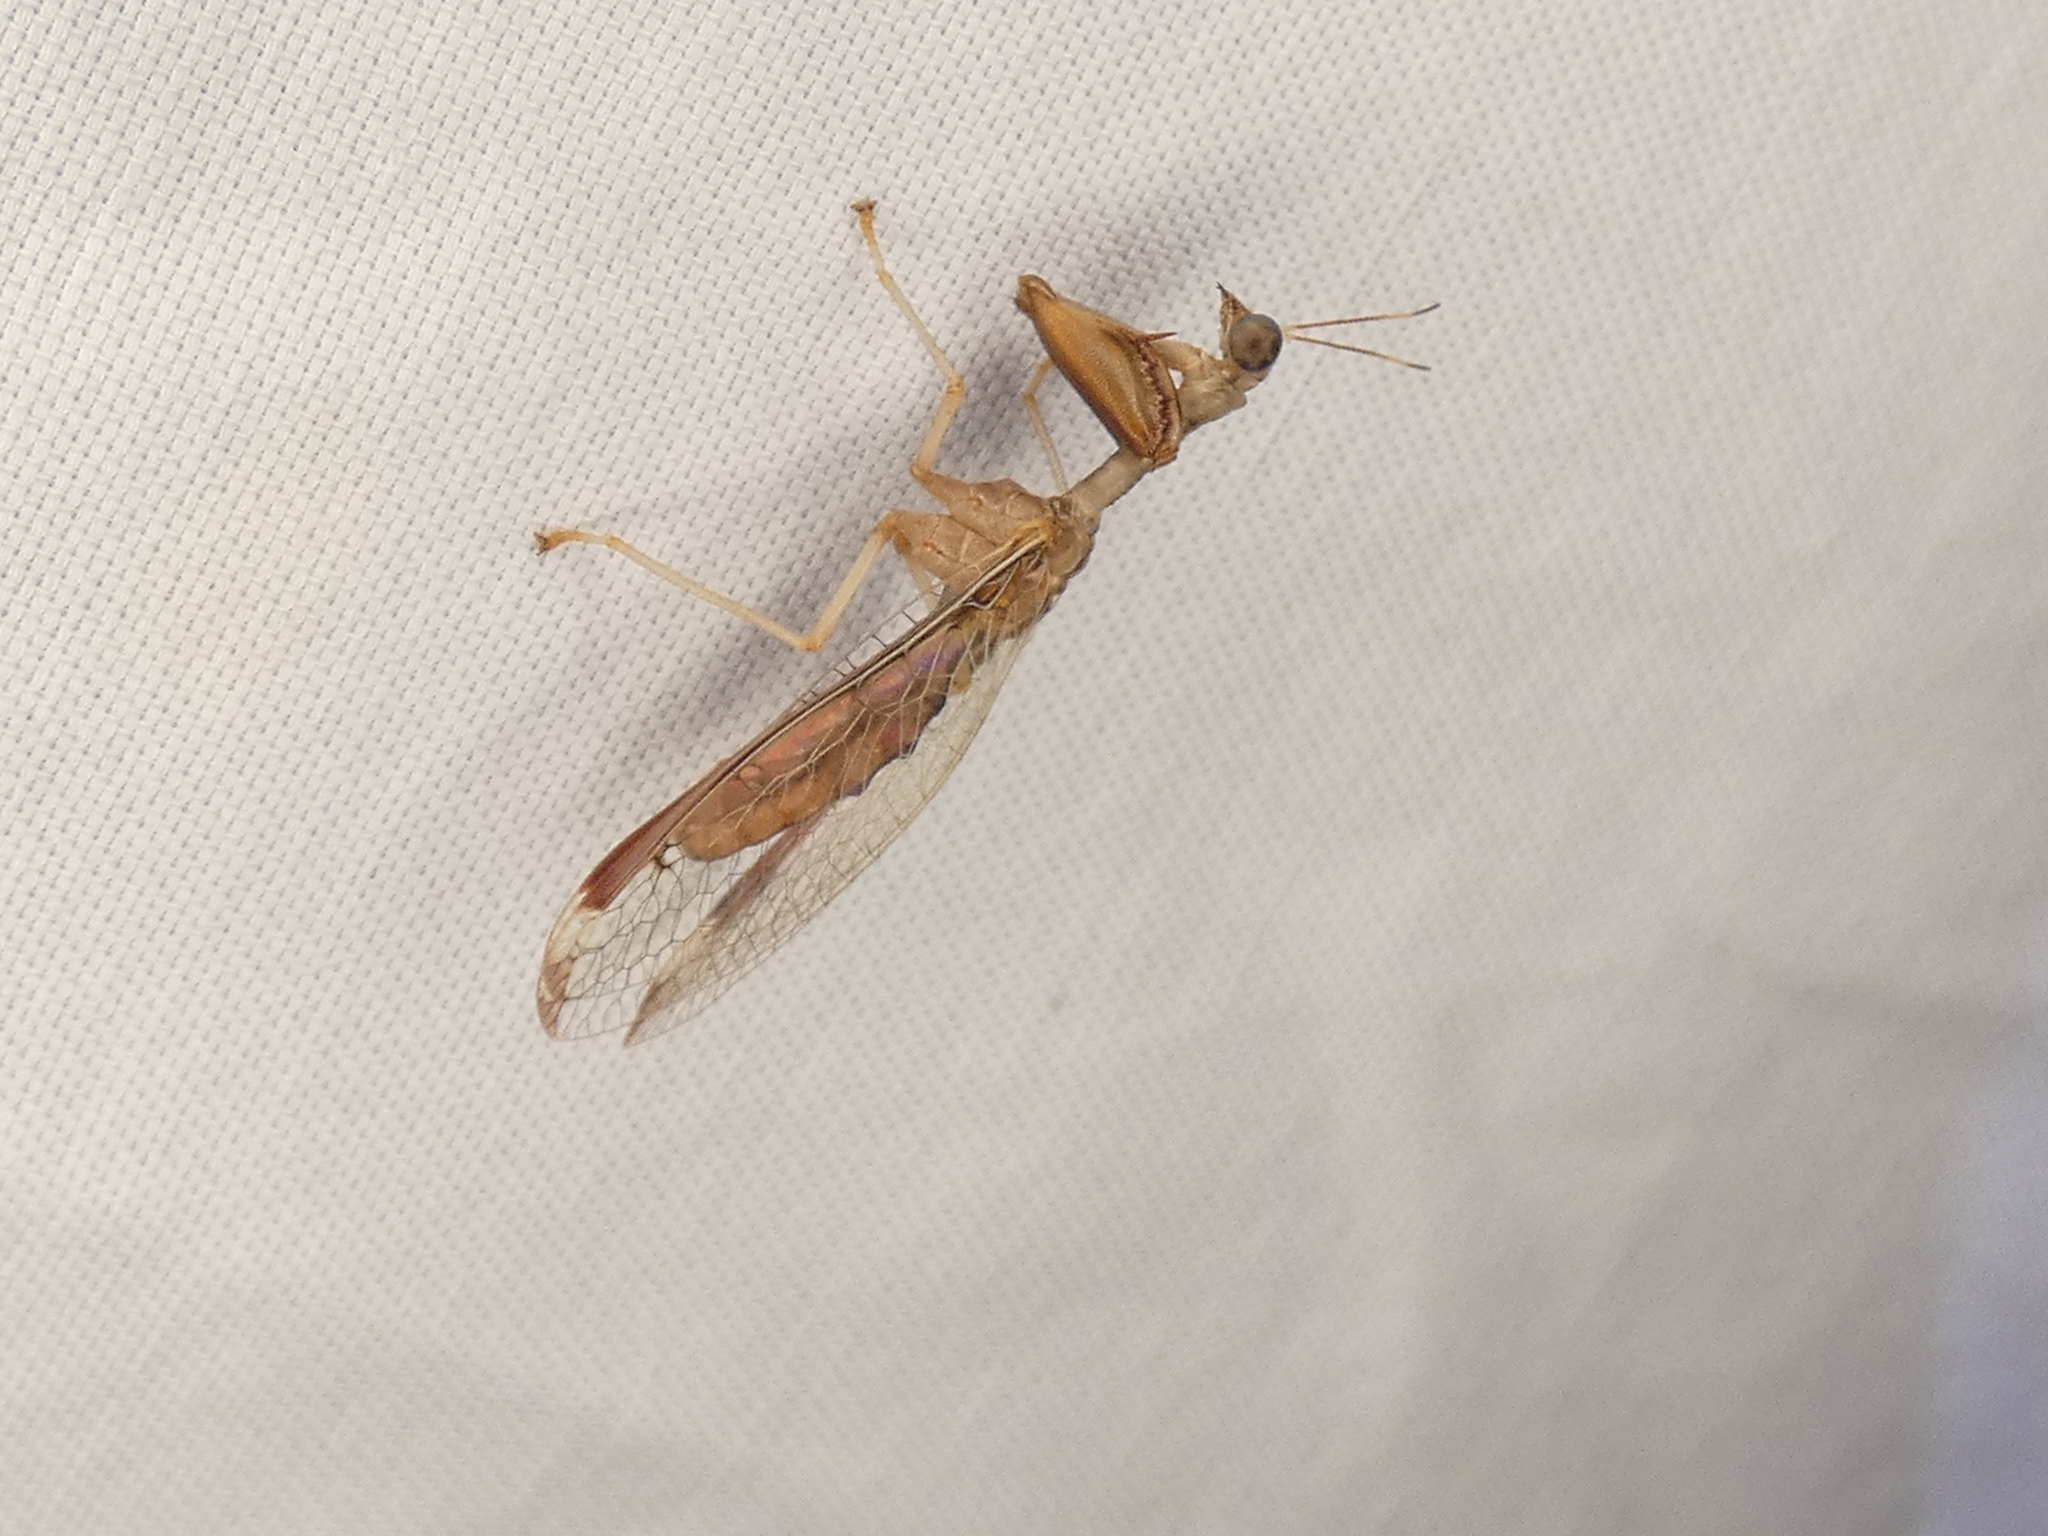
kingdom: Animalia
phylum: Arthropoda
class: Insecta
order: Neuroptera
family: Mantispidae
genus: Dicromantispa
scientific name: Dicromantispa interrupta
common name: Four-spotted mantidfly
